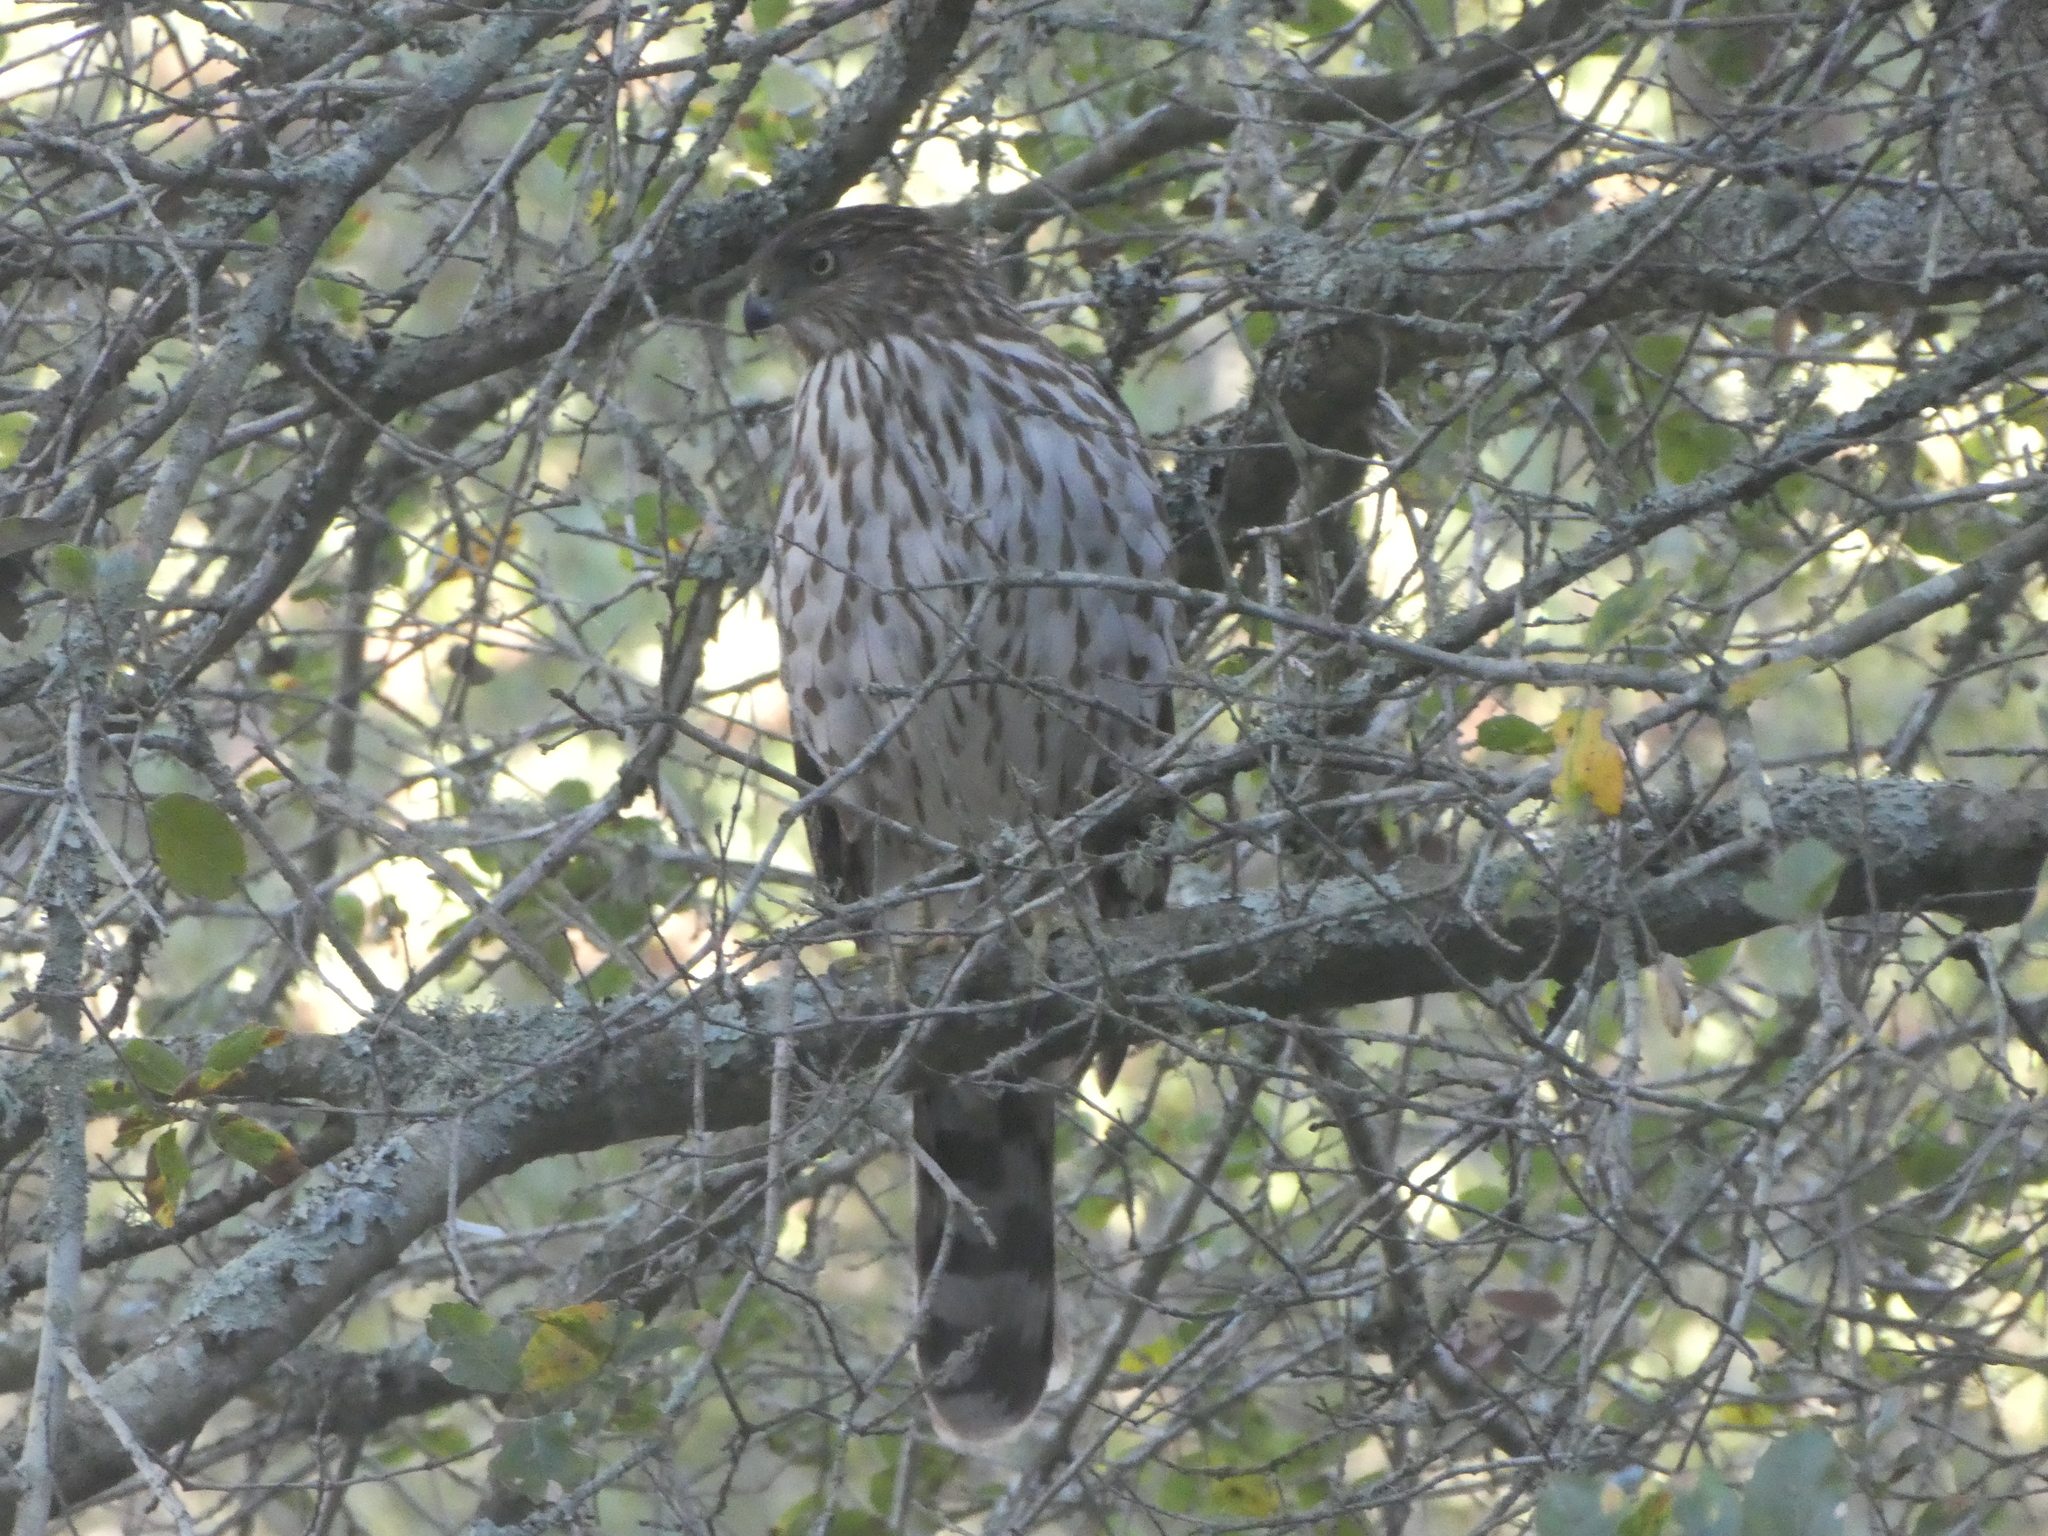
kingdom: Animalia
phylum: Chordata
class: Aves
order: Accipitriformes
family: Accipitridae
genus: Accipiter
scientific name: Accipiter cooperii
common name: Cooper's hawk
